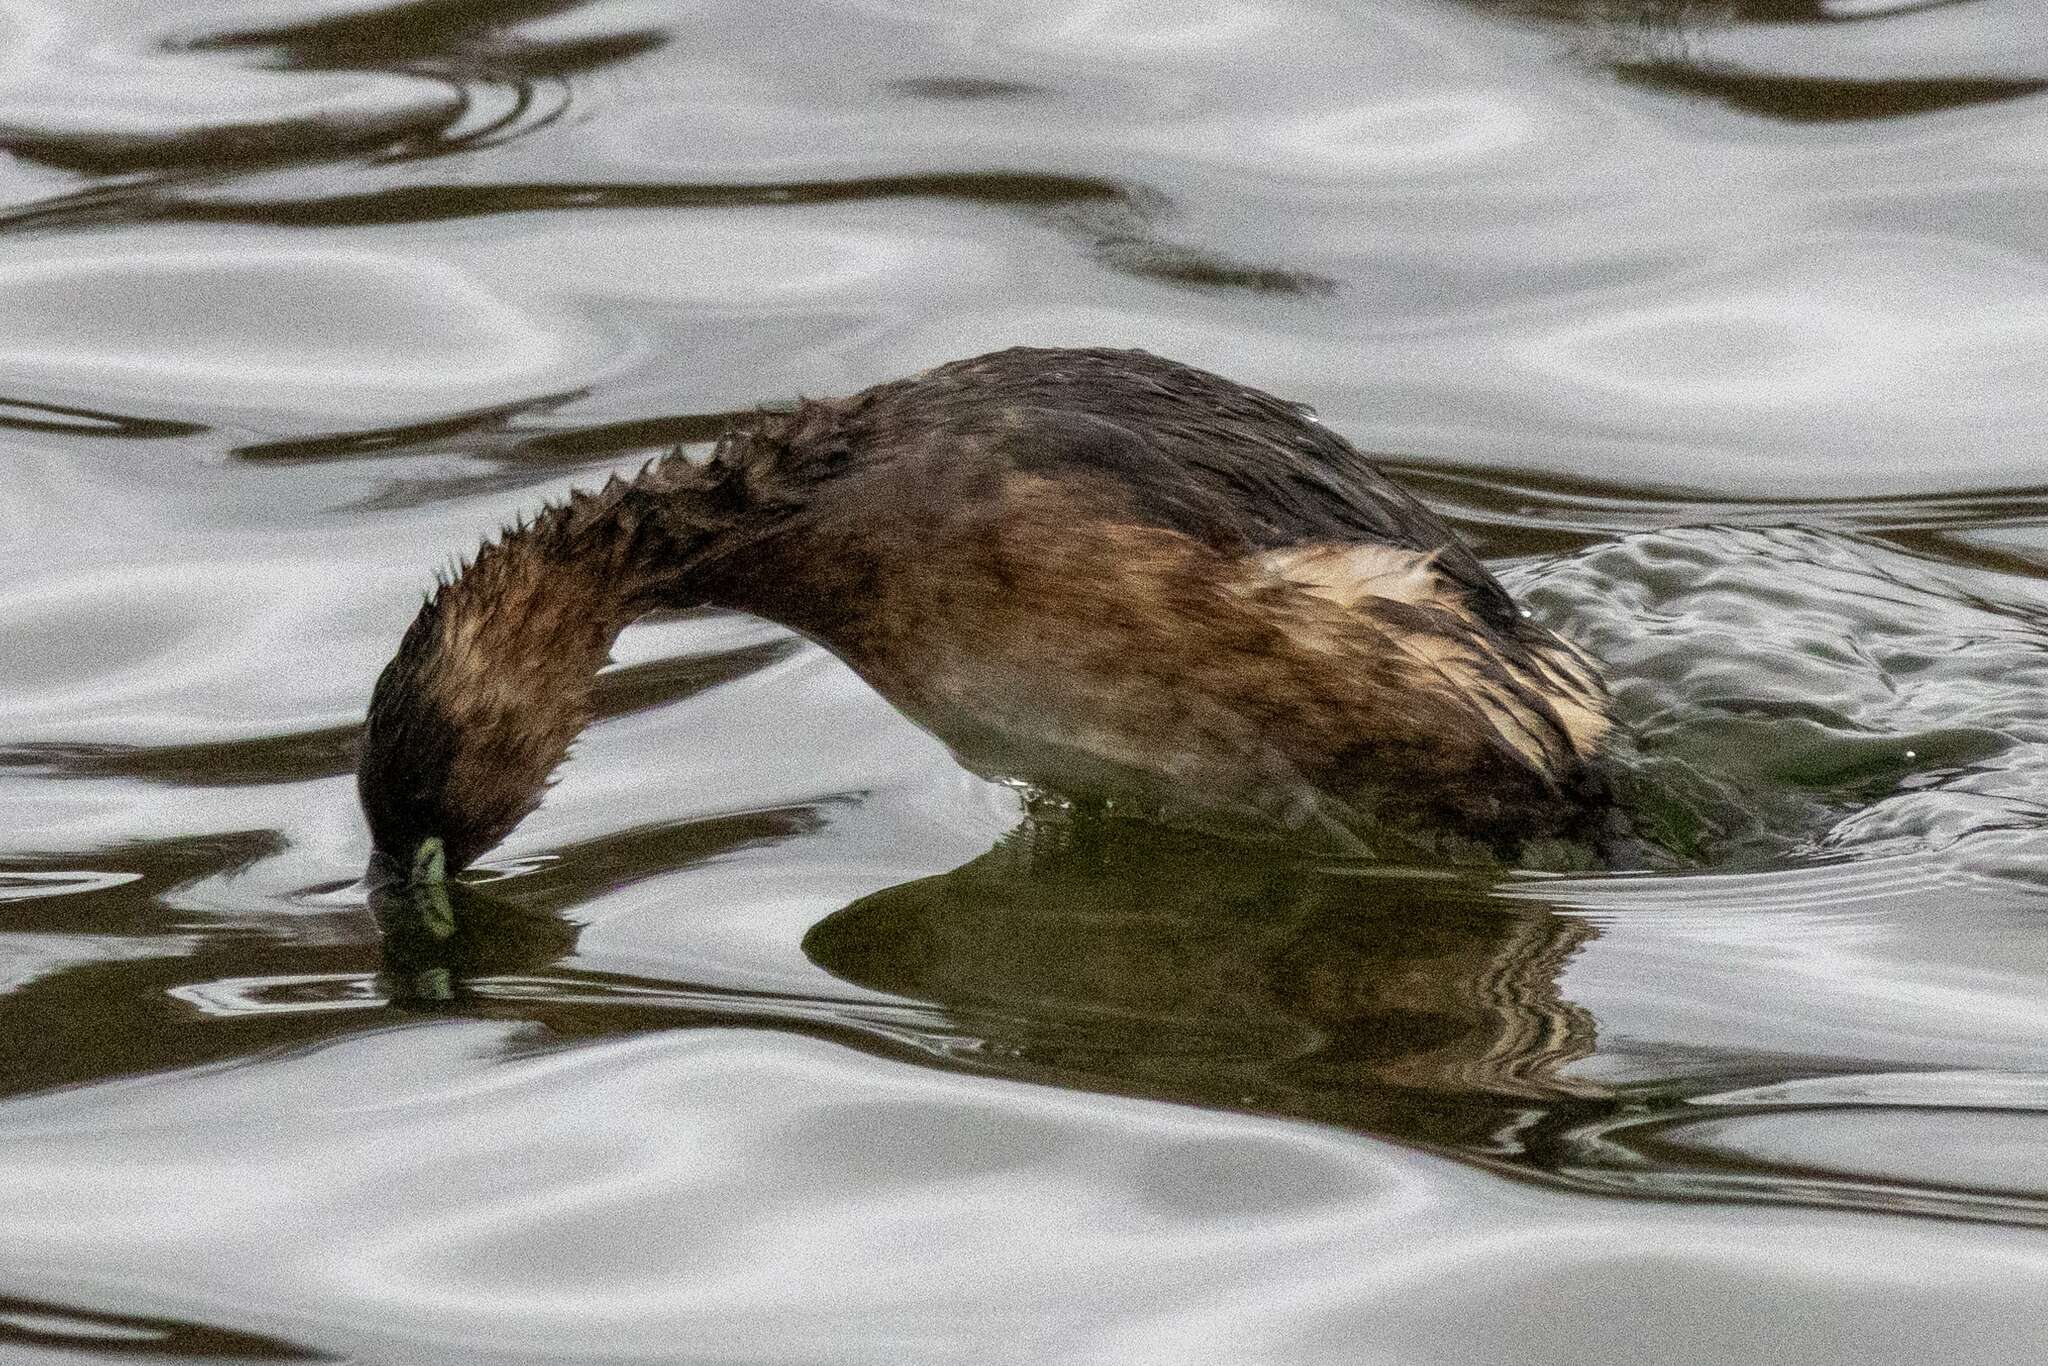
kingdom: Animalia
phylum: Chordata
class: Aves
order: Podicipediformes
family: Podicipedidae
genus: Tachybaptus
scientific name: Tachybaptus ruficollis
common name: Little grebe
